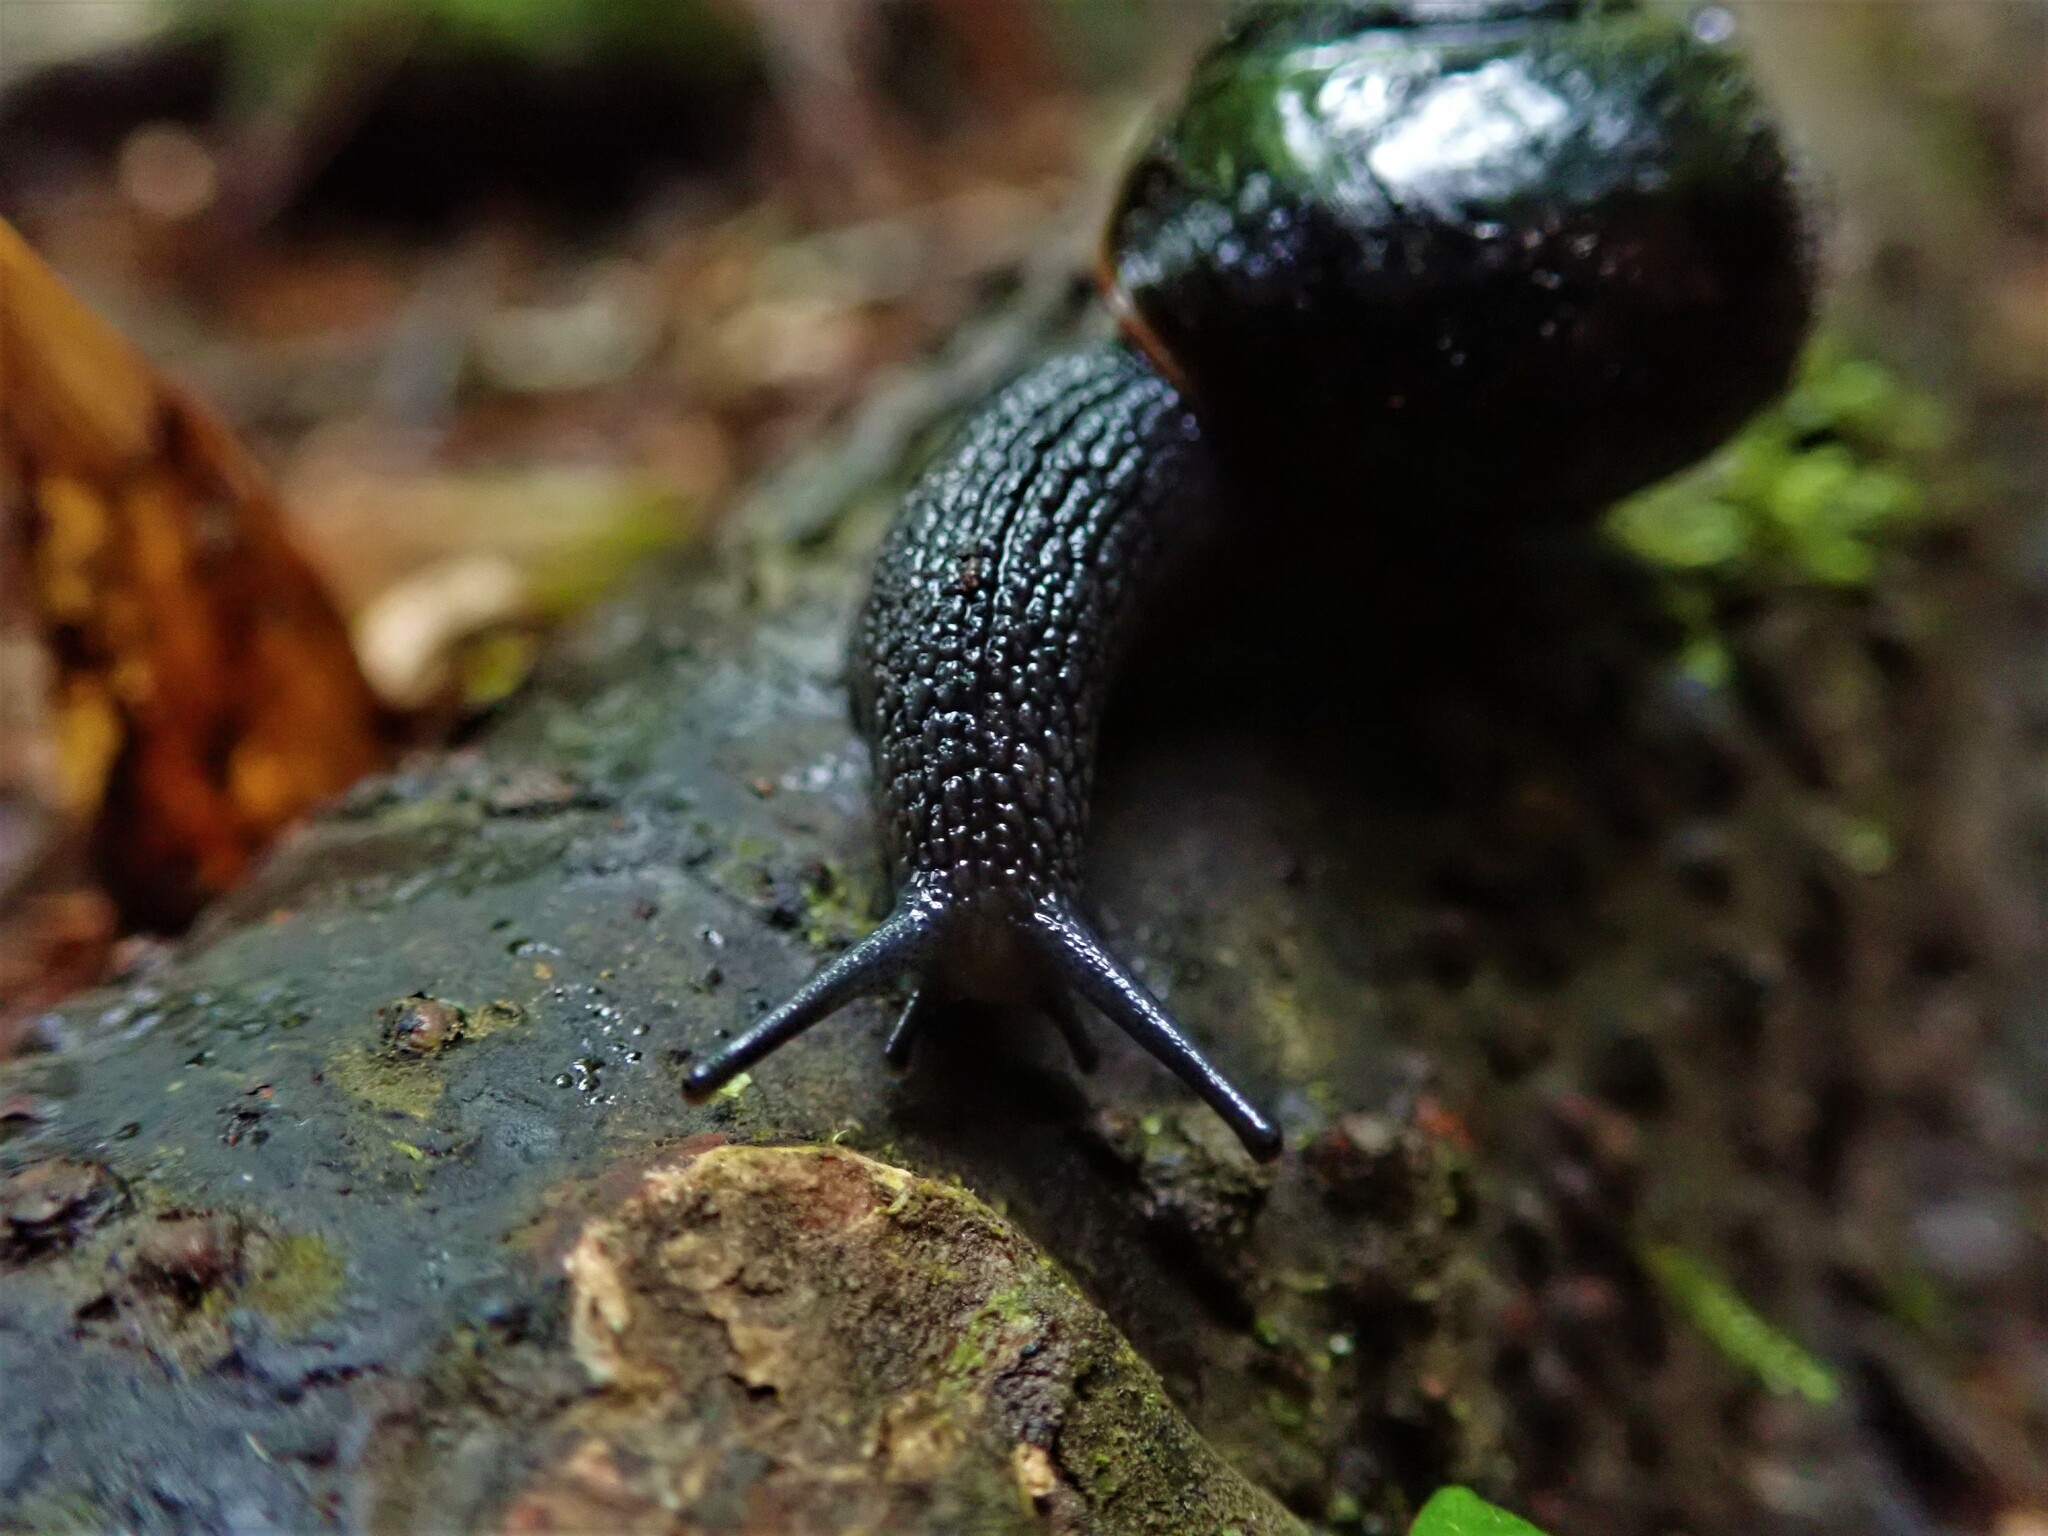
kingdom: Animalia
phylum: Mollusca
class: Gastropoda
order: Stylommatophora
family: Rhytididae
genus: Victaphanta
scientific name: Victaphanta compacta
